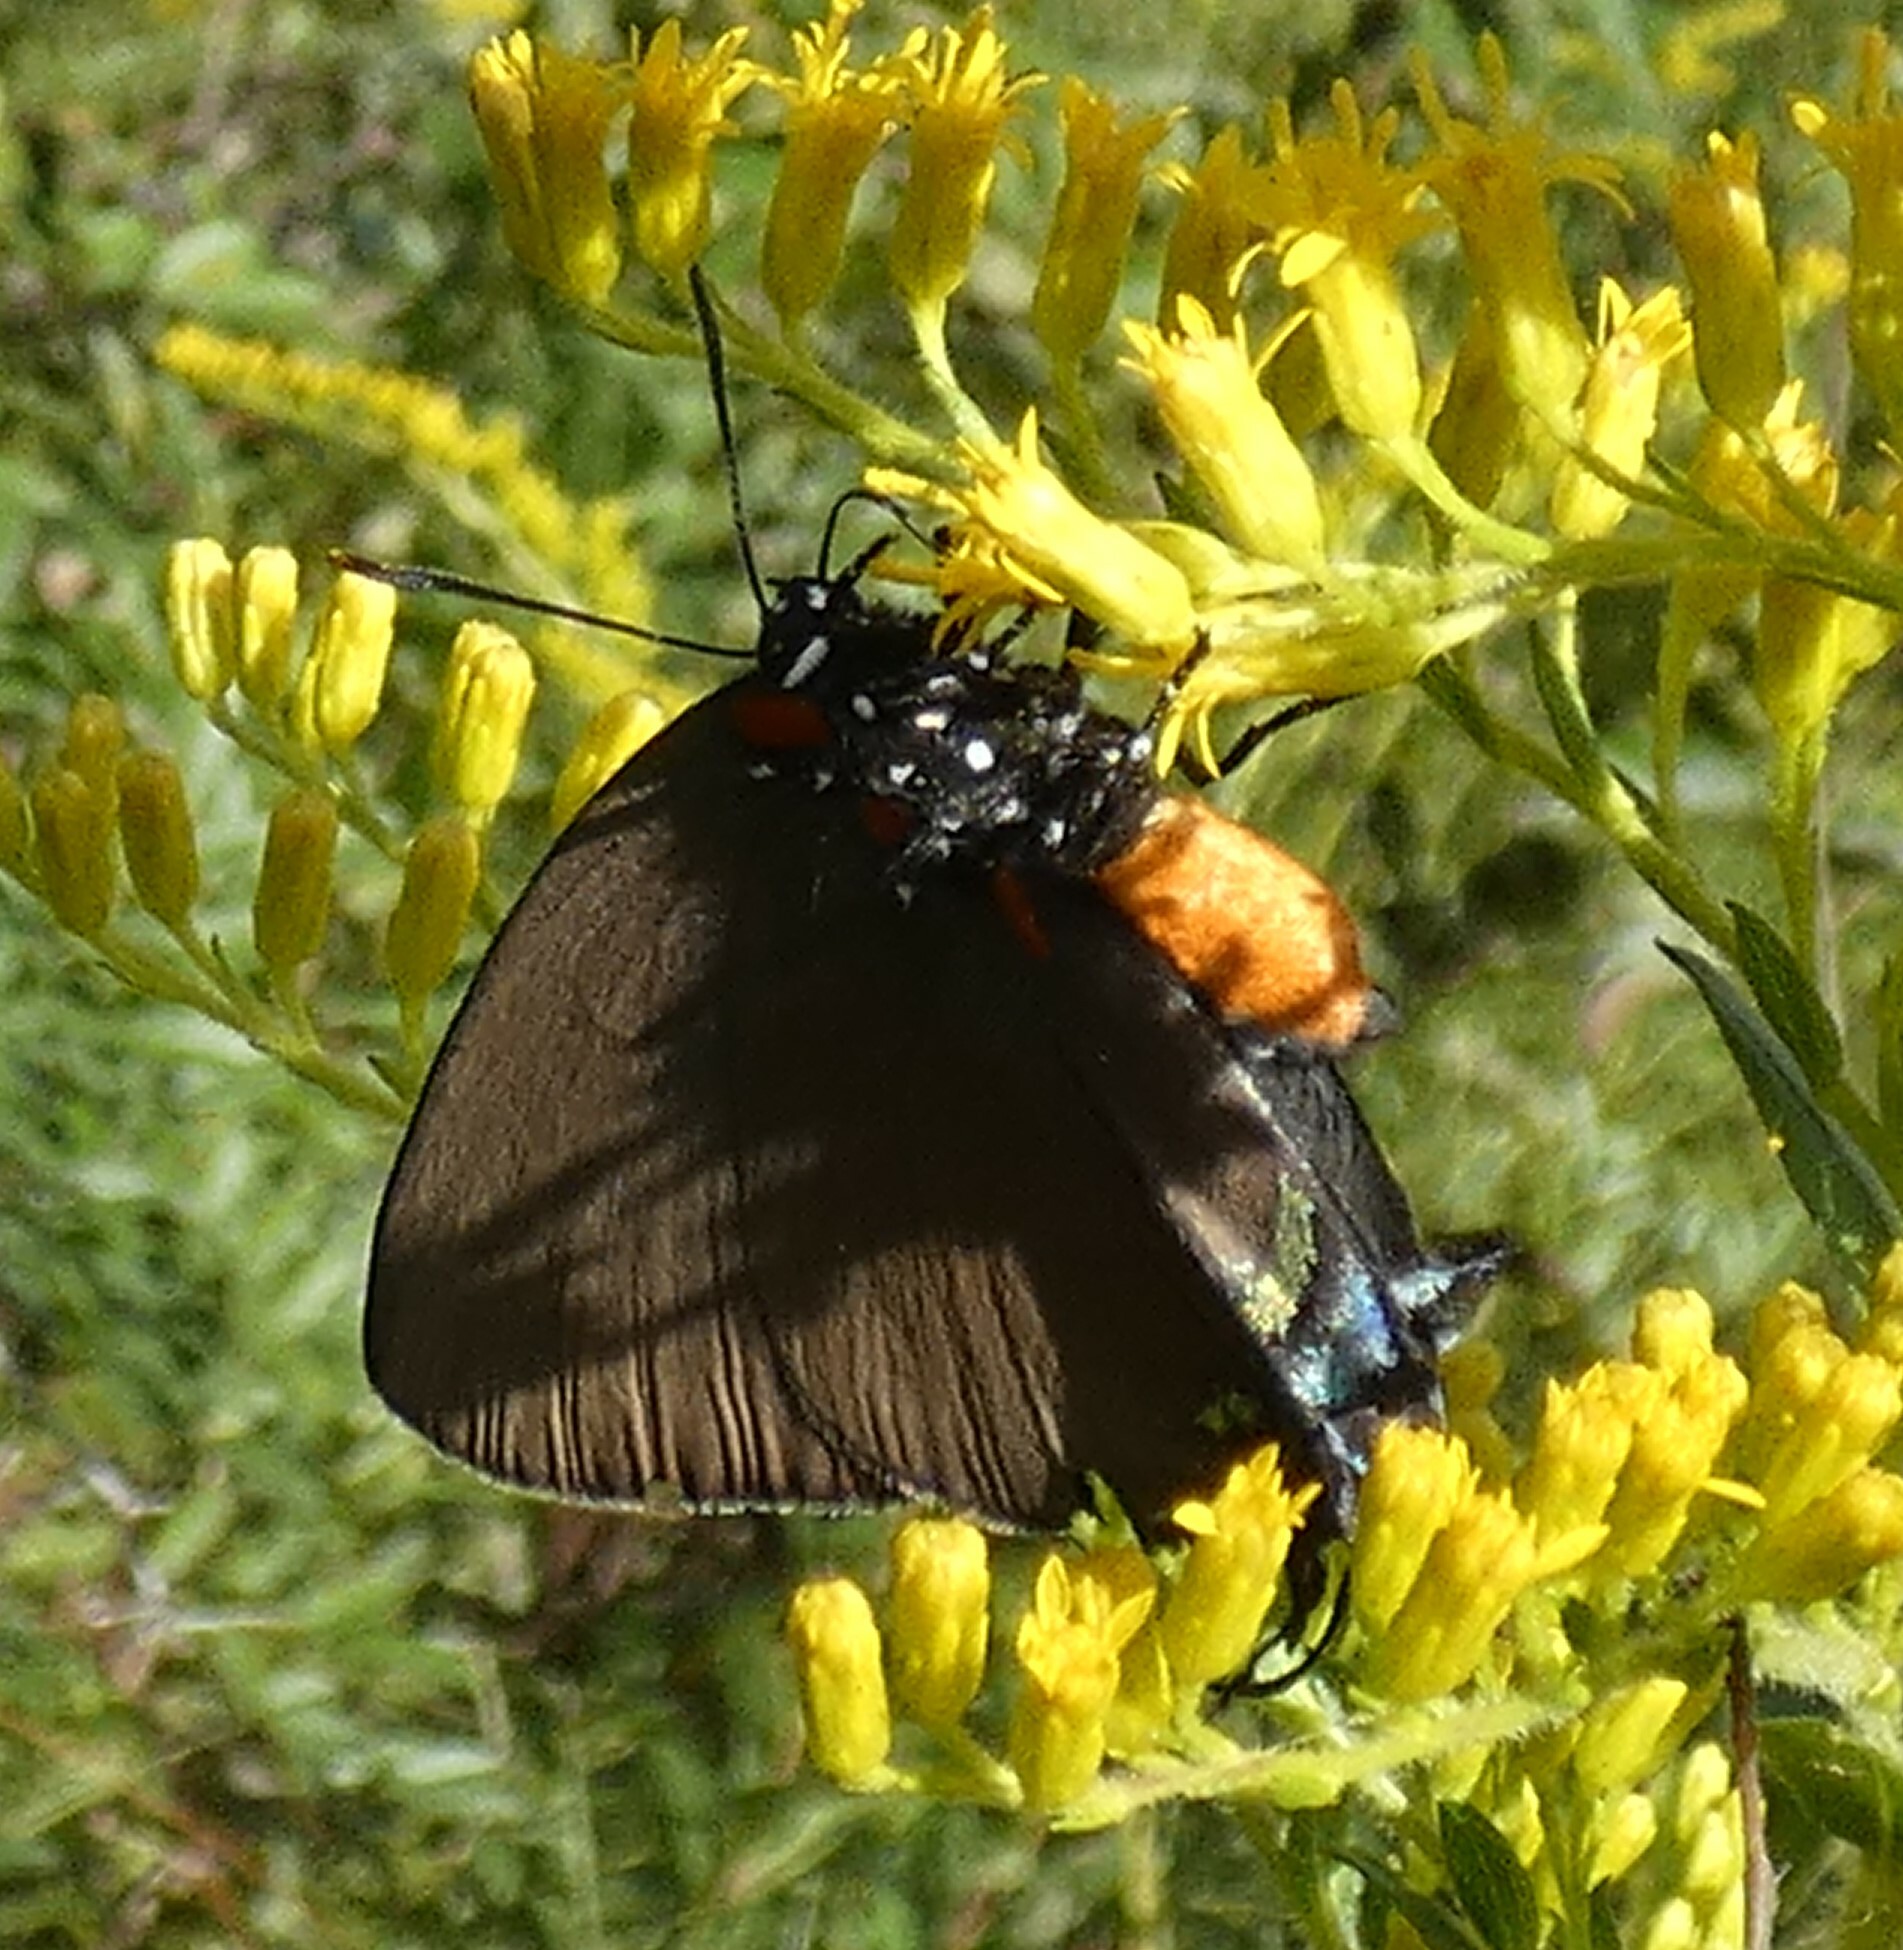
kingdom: Animalia
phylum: Arthropoda
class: Insecta
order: Lepidoptera
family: Lycaenidae
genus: Atlides
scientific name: Atlides halesus
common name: Great purple hairstreak
